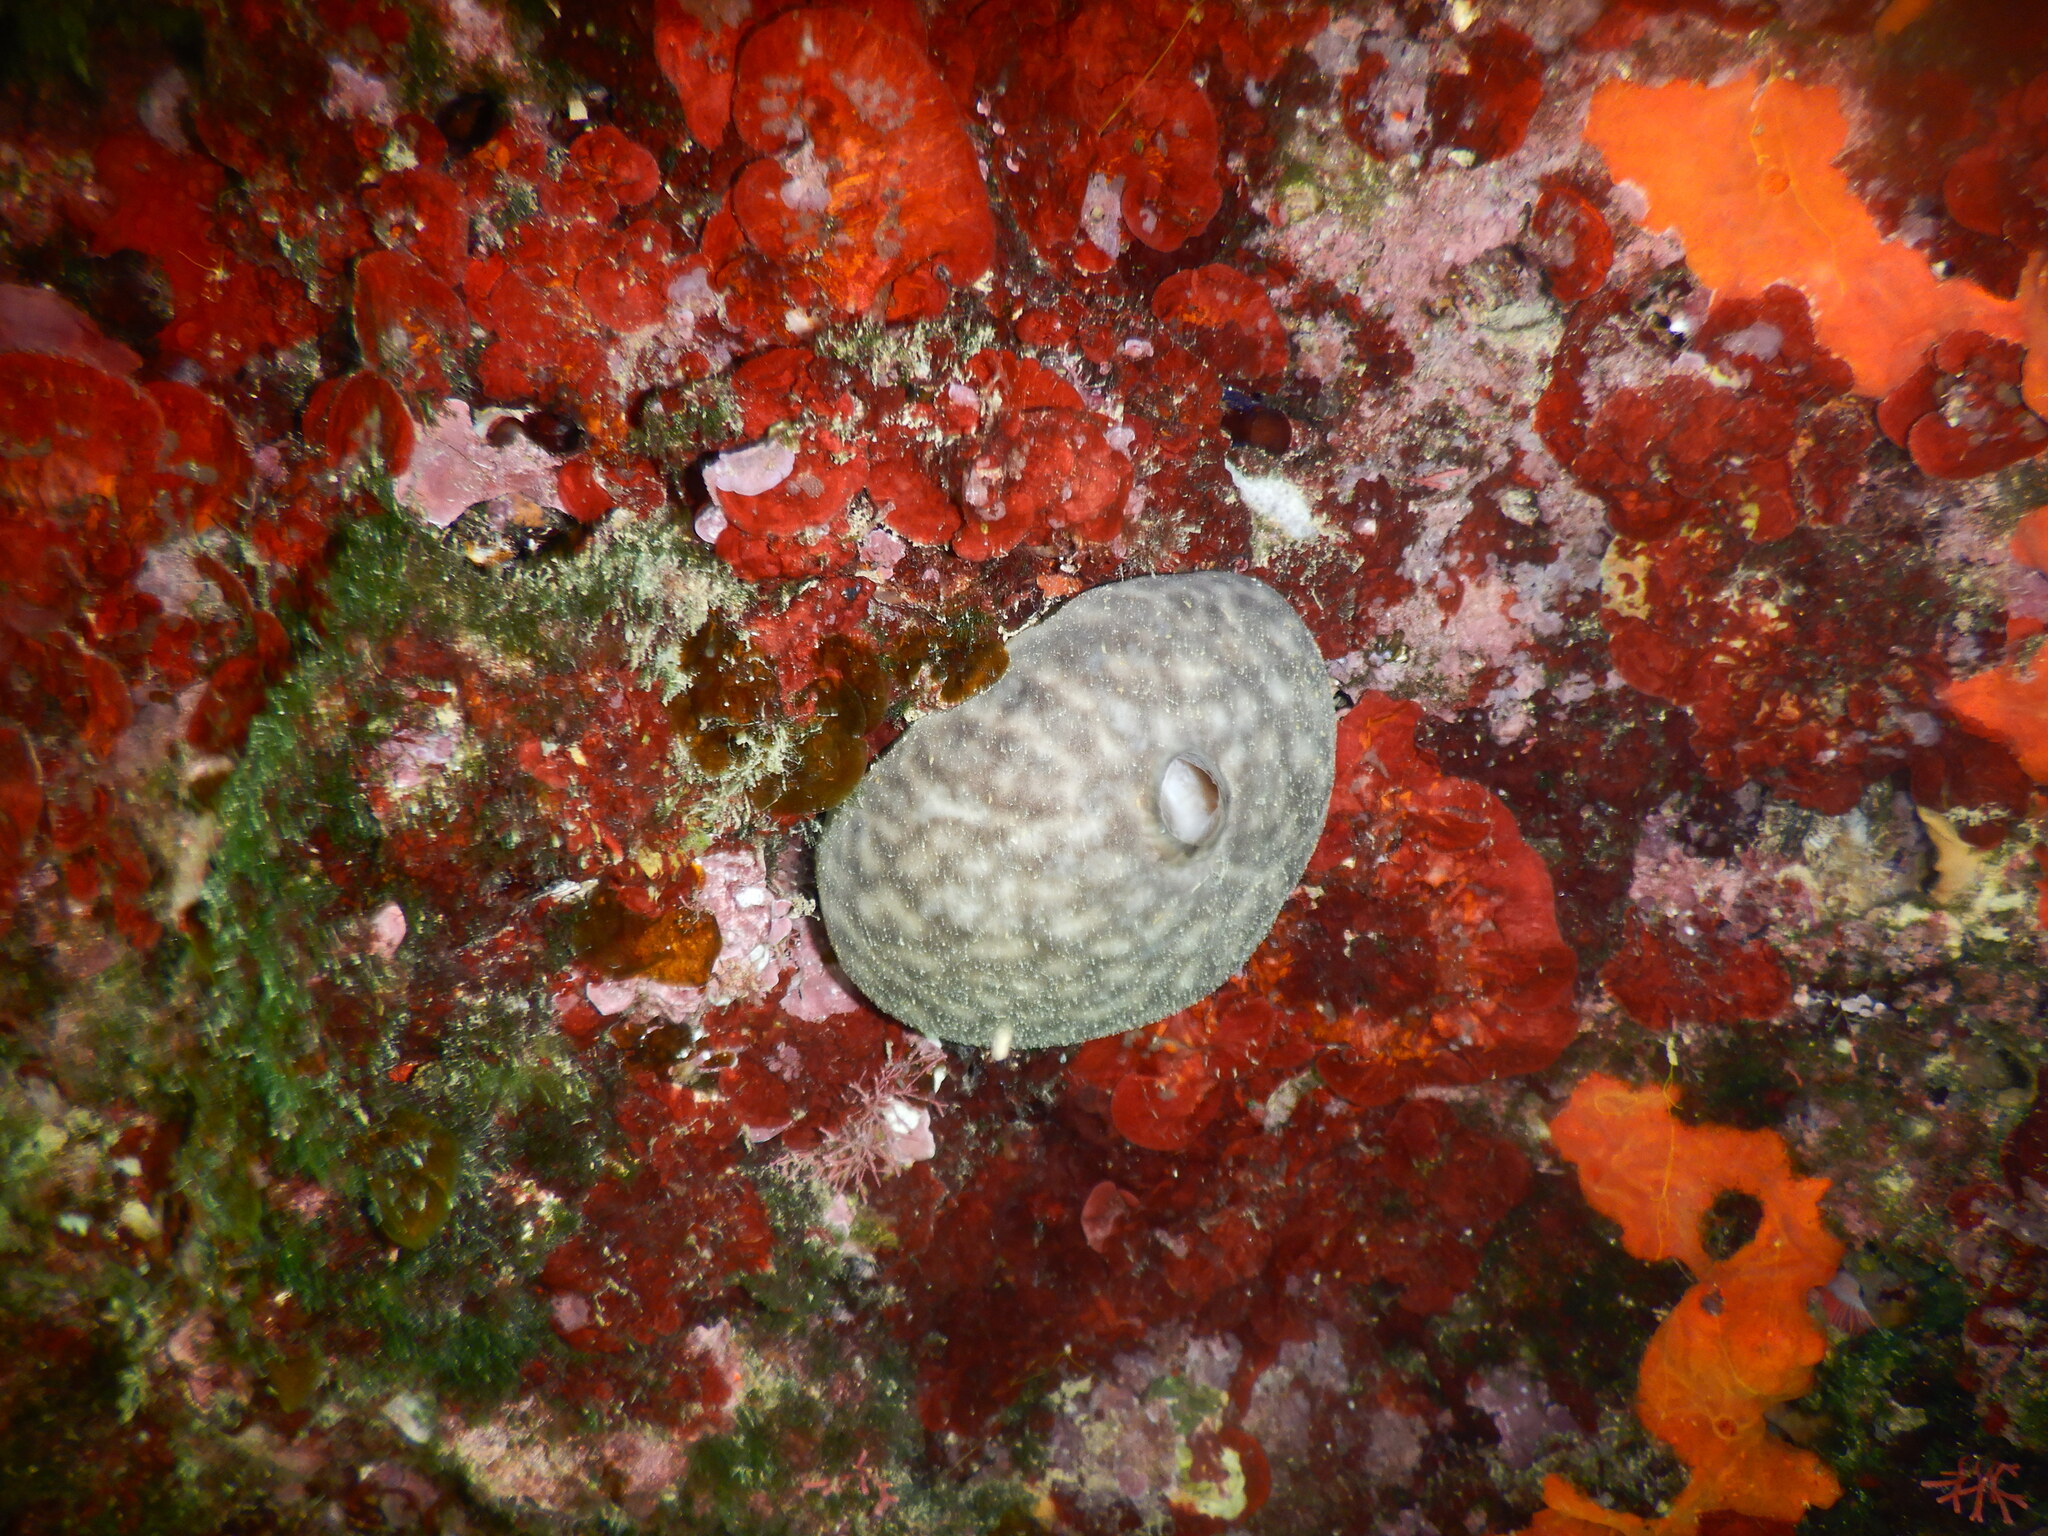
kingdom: Animalia
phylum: Porifera
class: Demospongiae
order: Chondrosiida
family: Chondrosiidae
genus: Chondrosia
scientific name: Chondrosia reniformis
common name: Chicken liver sponge
